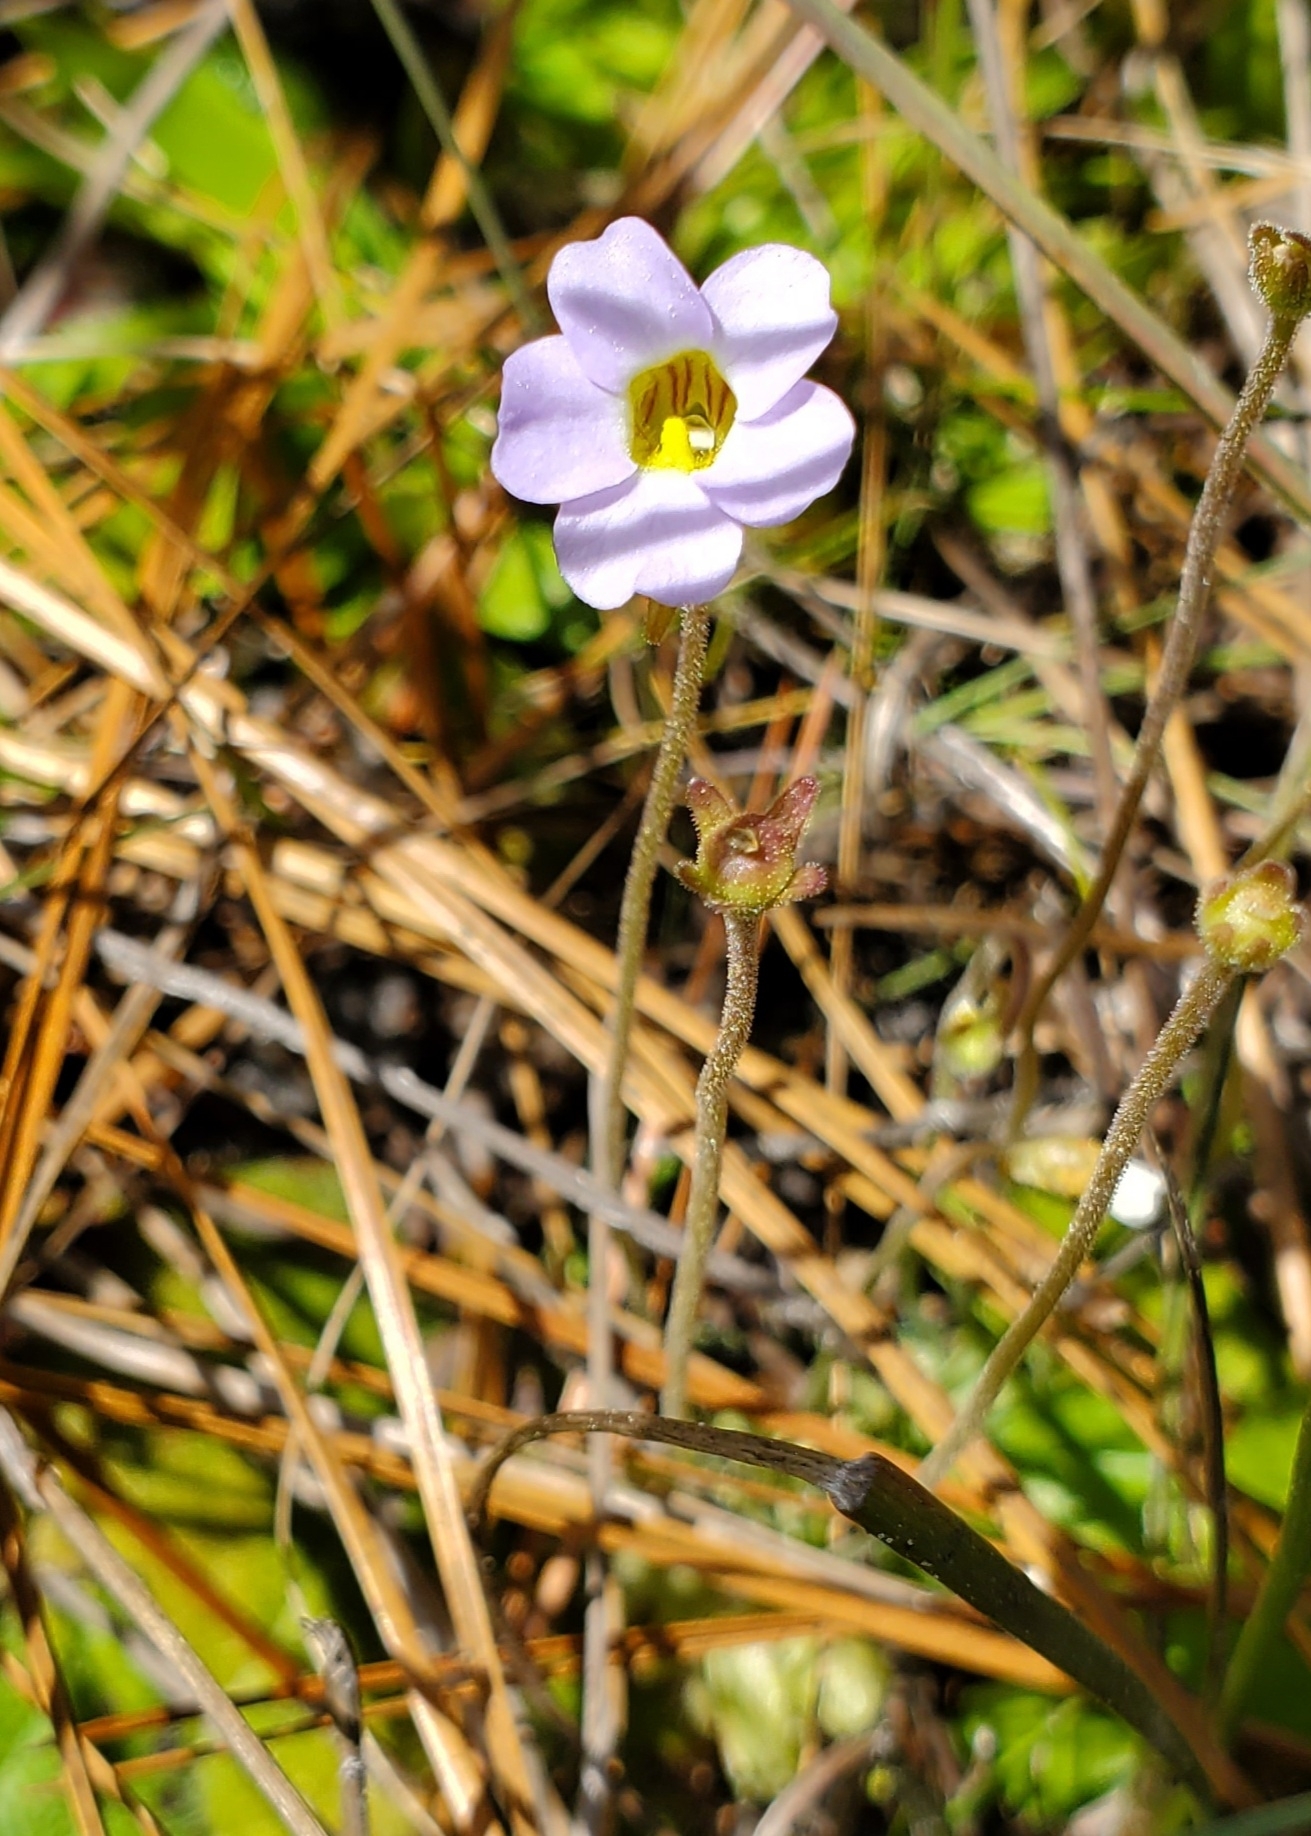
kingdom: Plantae
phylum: Tracheophyta
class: Magnoliopsida
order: Lamiales
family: Lentibulariaceae
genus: Pinguicula
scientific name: Pinguicula pumila
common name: Small butterwort
